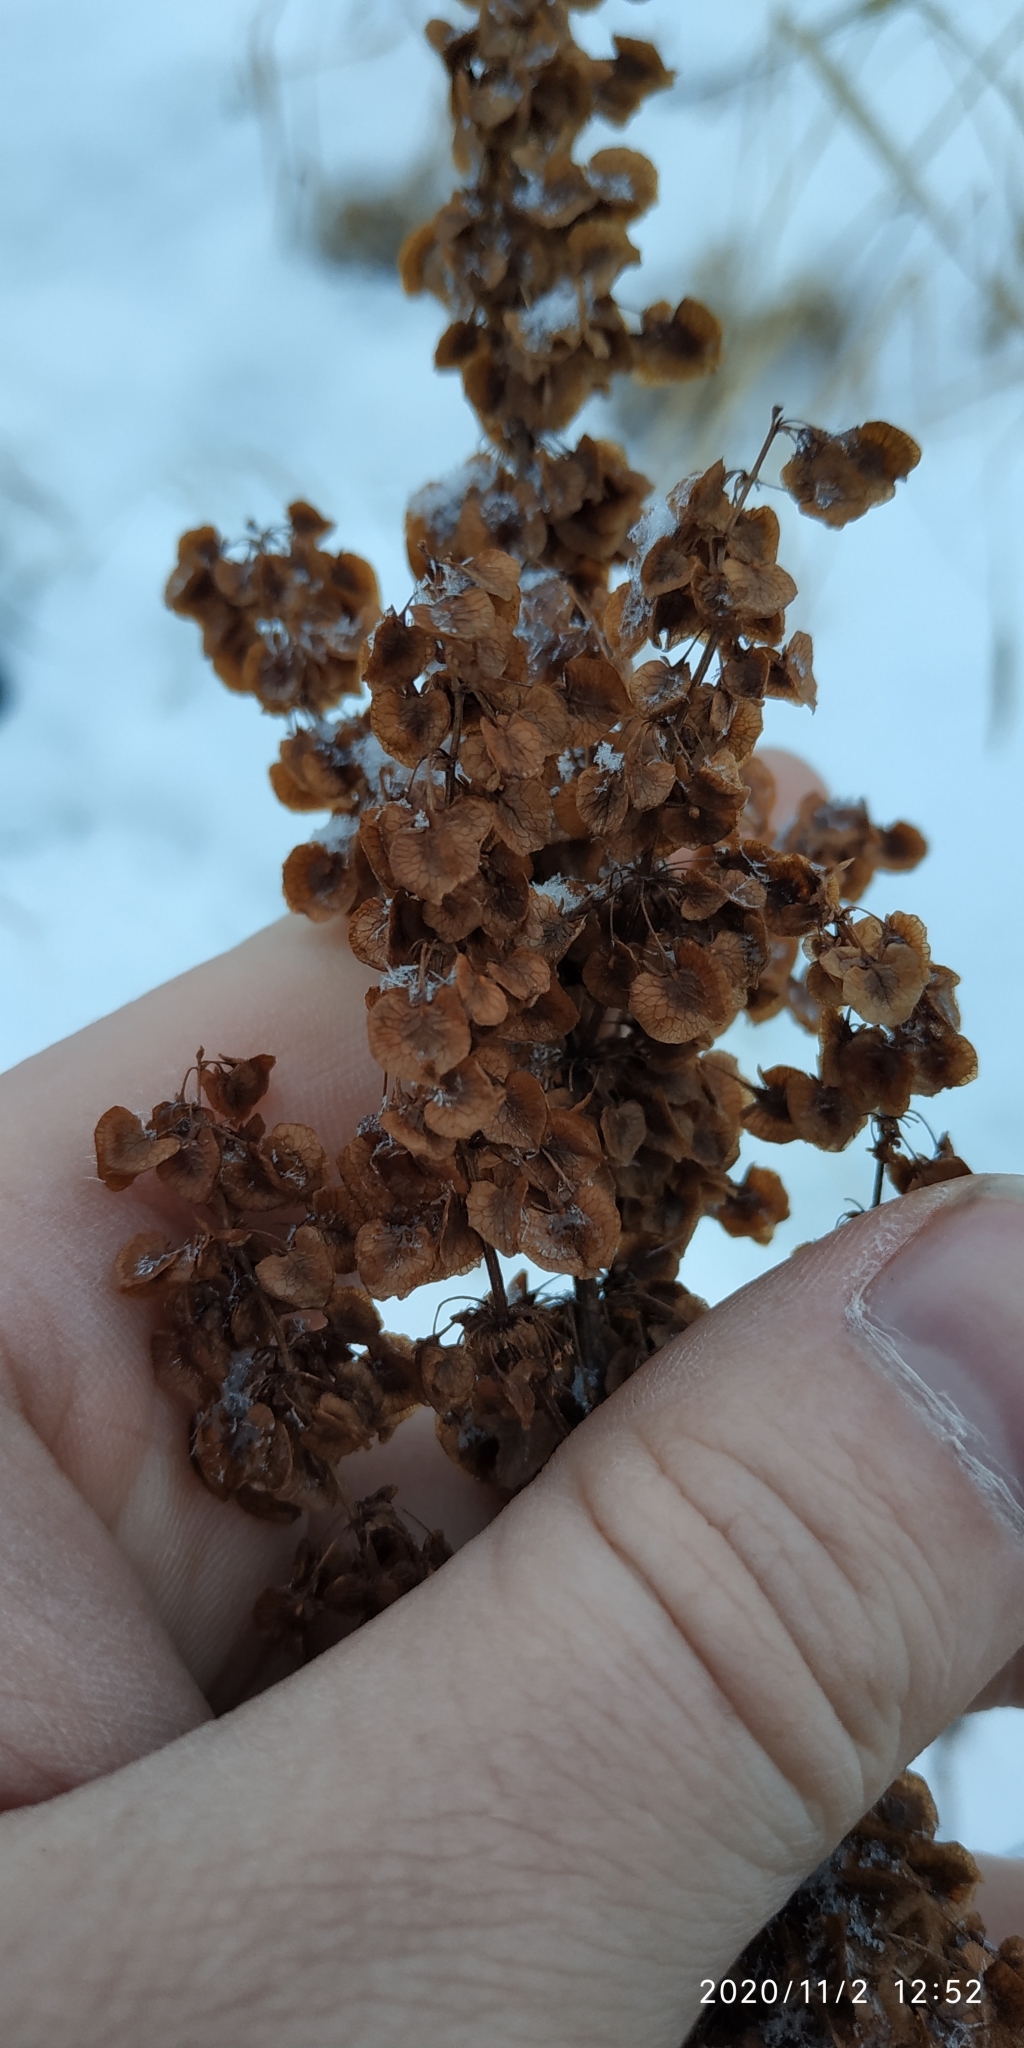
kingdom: Plantae
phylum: Tracheophyta
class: Magnoliopsida
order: Caryophyllales
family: Polygonaceae
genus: Rumex
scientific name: Rumex pseudonatronatus
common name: Field dock
